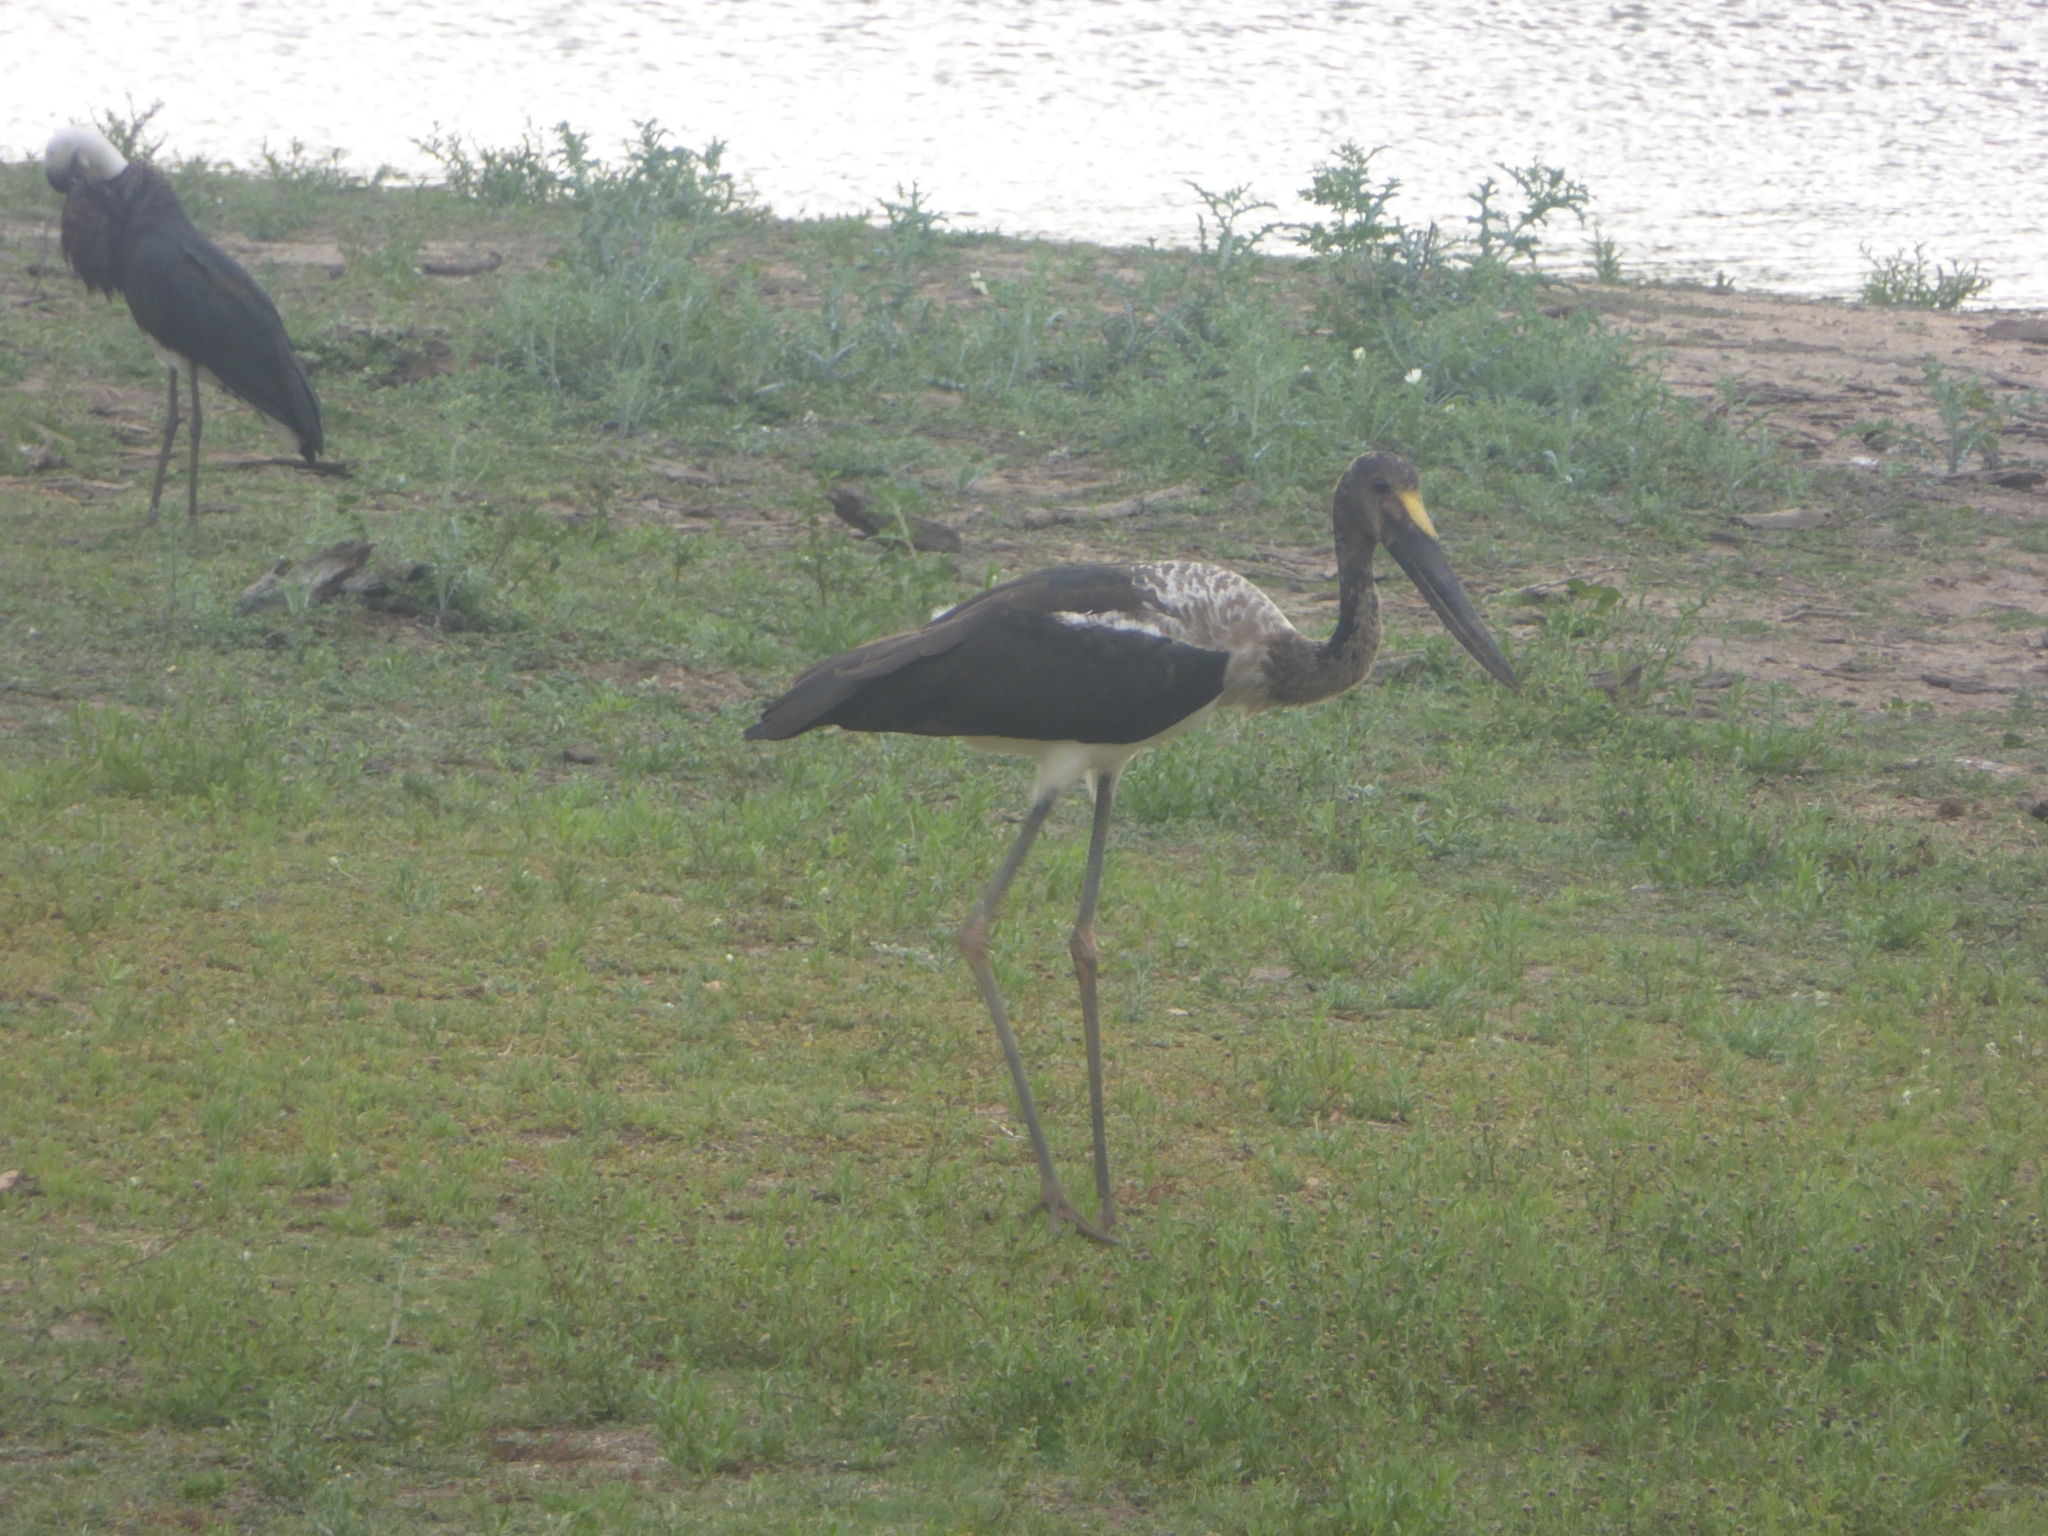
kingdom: Animalia
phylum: Chordata
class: Aves
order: Ciconiiformes
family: Ciconiidae
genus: Ephippiorhynchus
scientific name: Ephippiorhynchus senegalensis
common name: Saddle-billed stork
